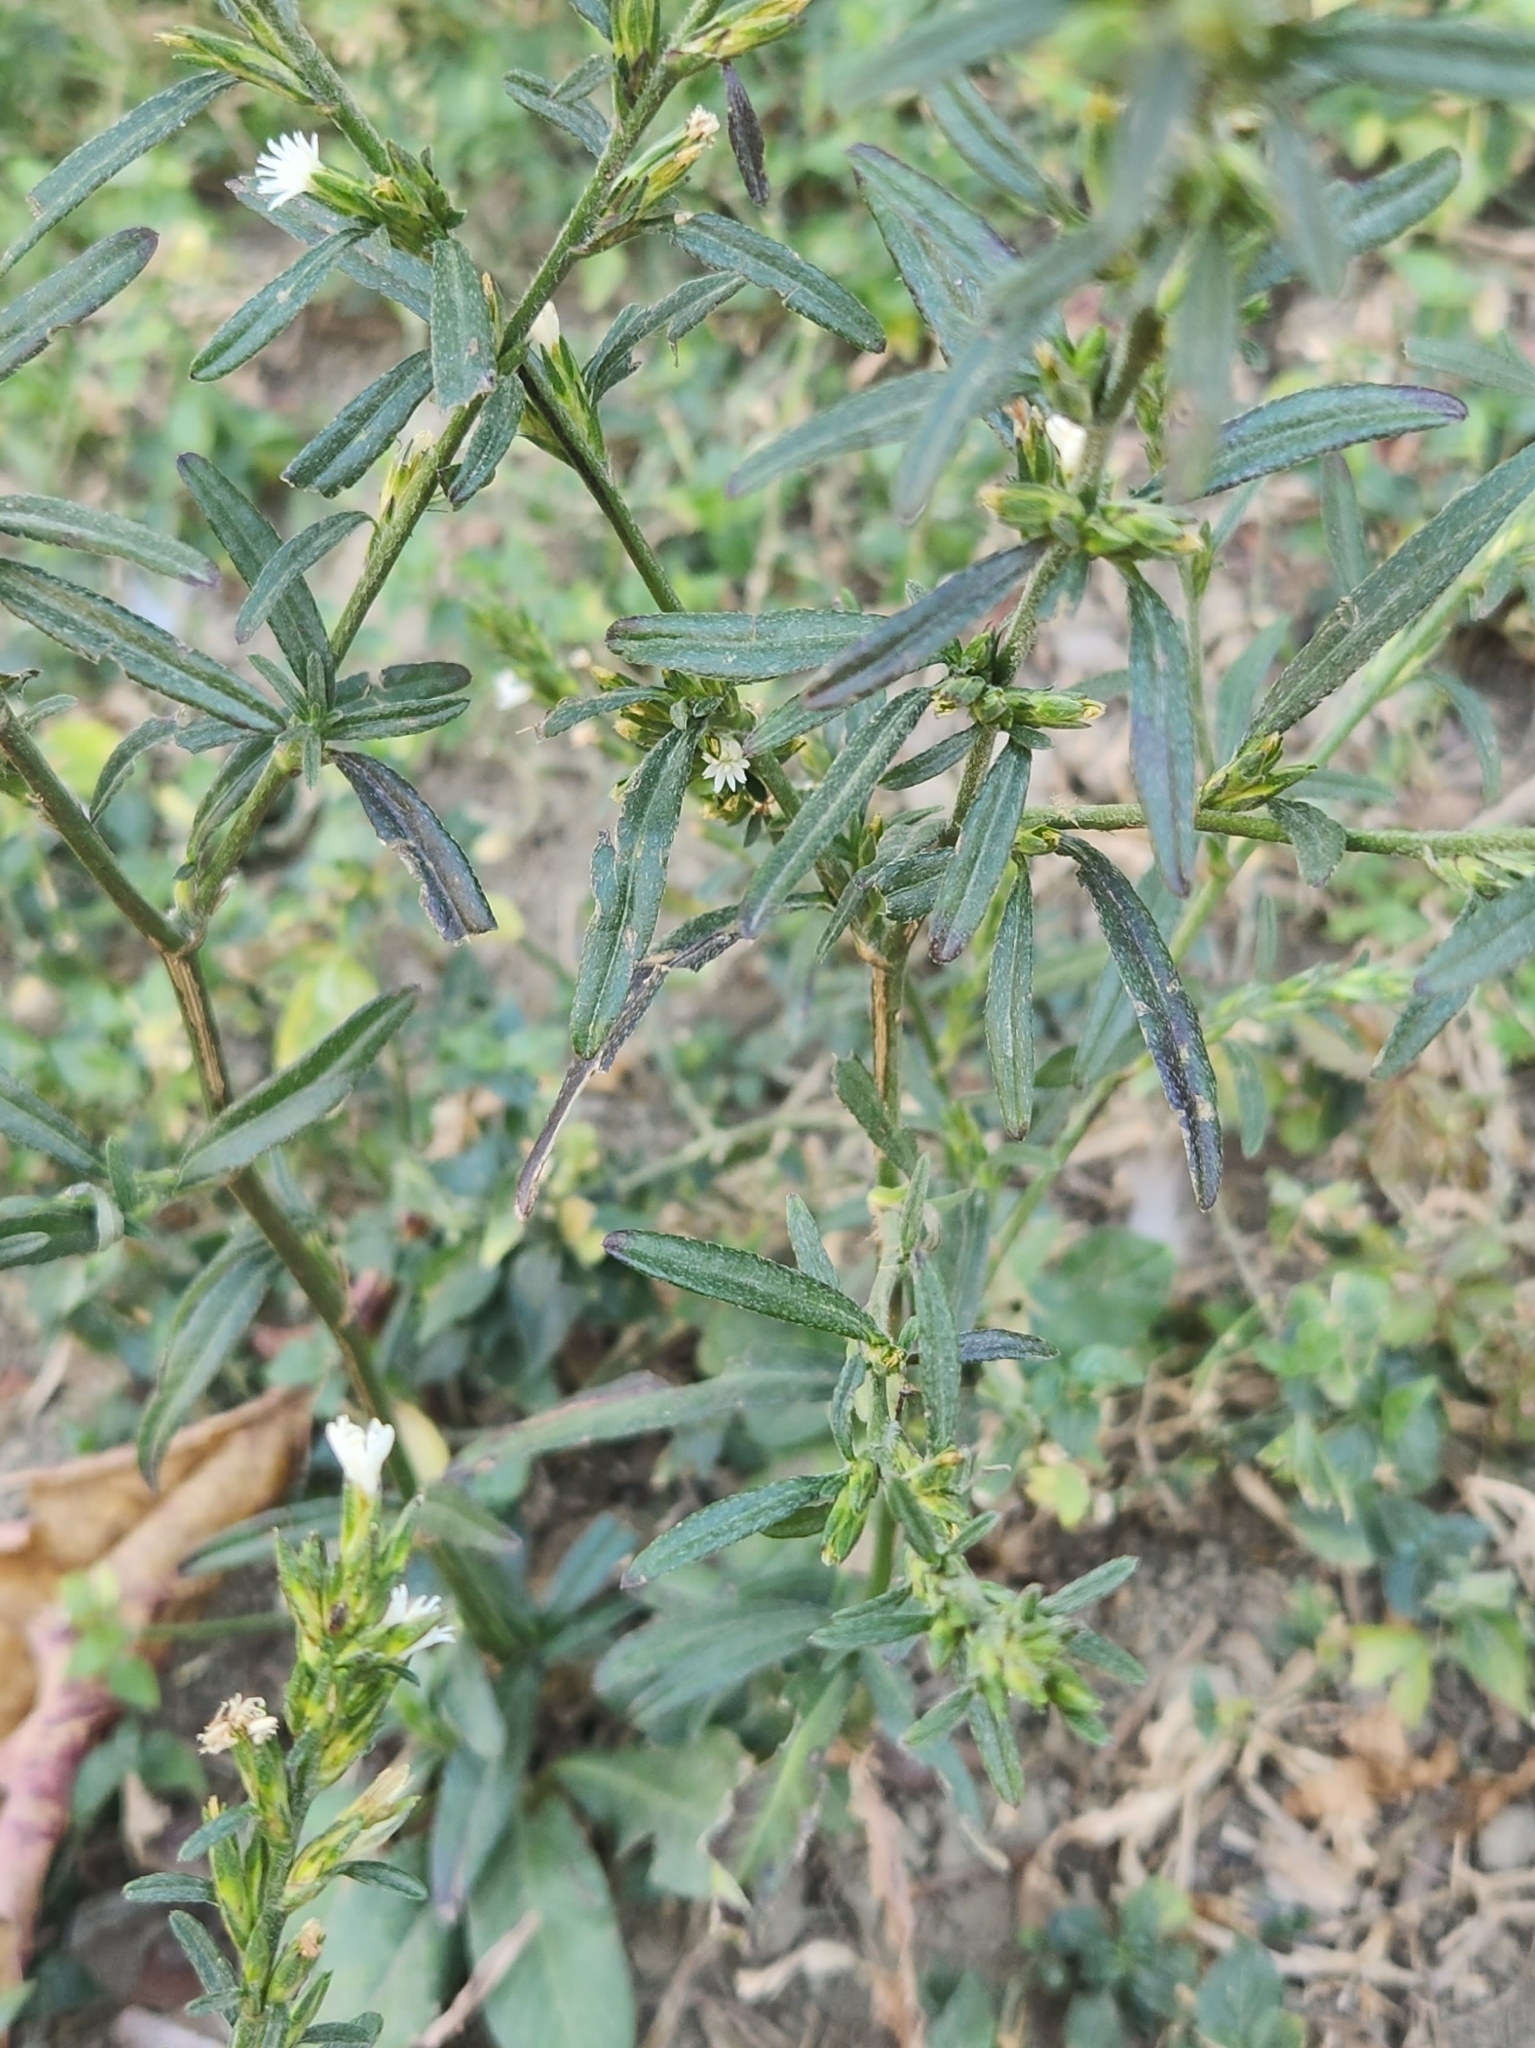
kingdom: Plantae
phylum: Tracheophyta
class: Magnoliopsida
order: Asterales
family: Asteraceae
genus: Pseudelephantopus
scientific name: Pseudelephantopus spicatus
